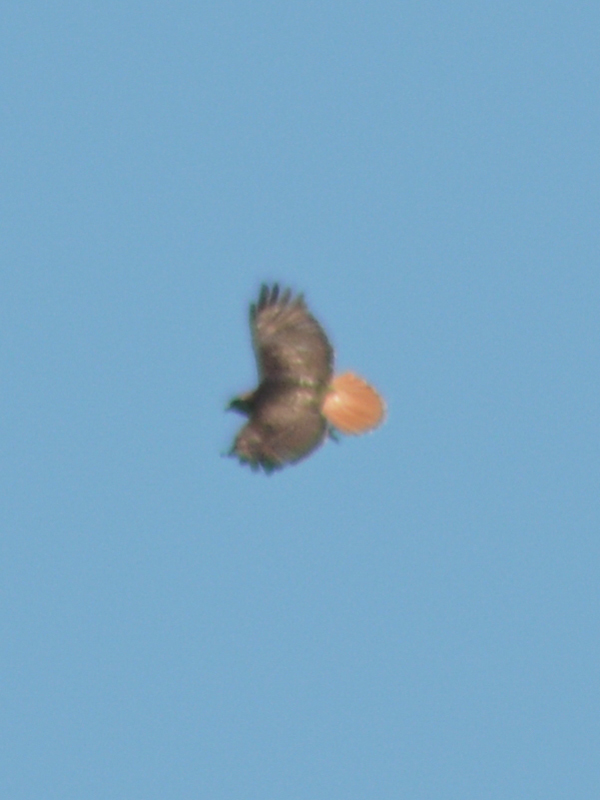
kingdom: Animalia
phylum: Chordata
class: Aves
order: Accipitriformes
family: Accipitridae
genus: Buteo
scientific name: Buteo jamaicensis
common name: Red-tailed hawk
